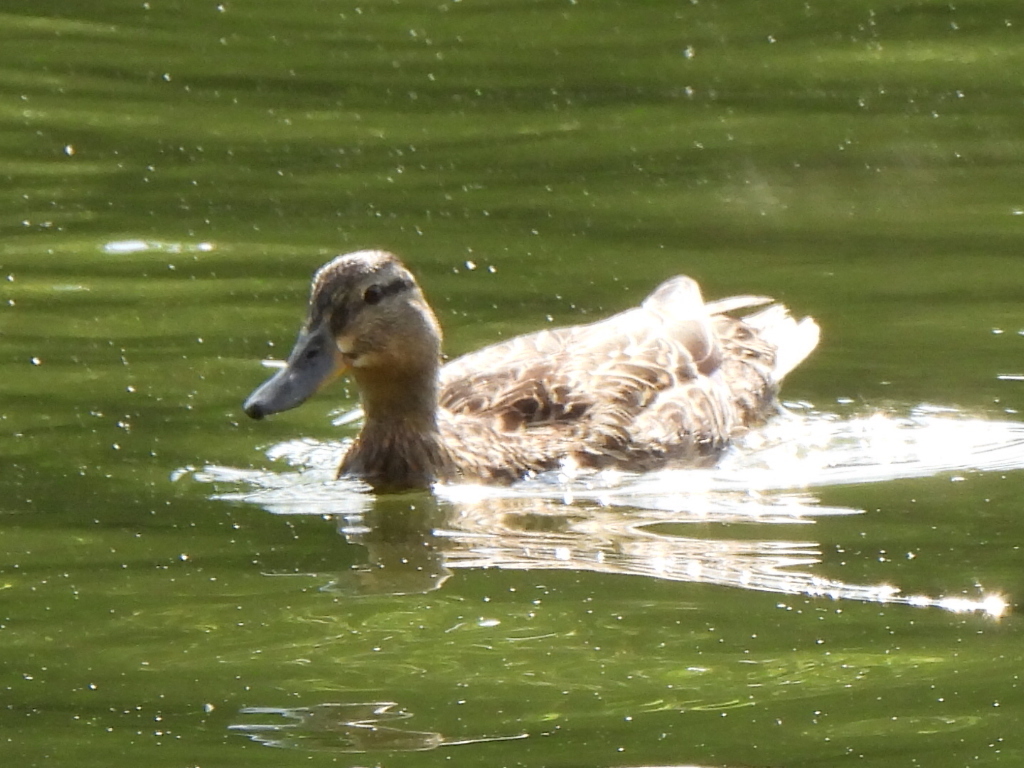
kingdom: Animalia
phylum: Chordata
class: Aves
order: Anseriformes
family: Anatidae
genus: Anas
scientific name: Anas platyrhynchos
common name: Mallard
